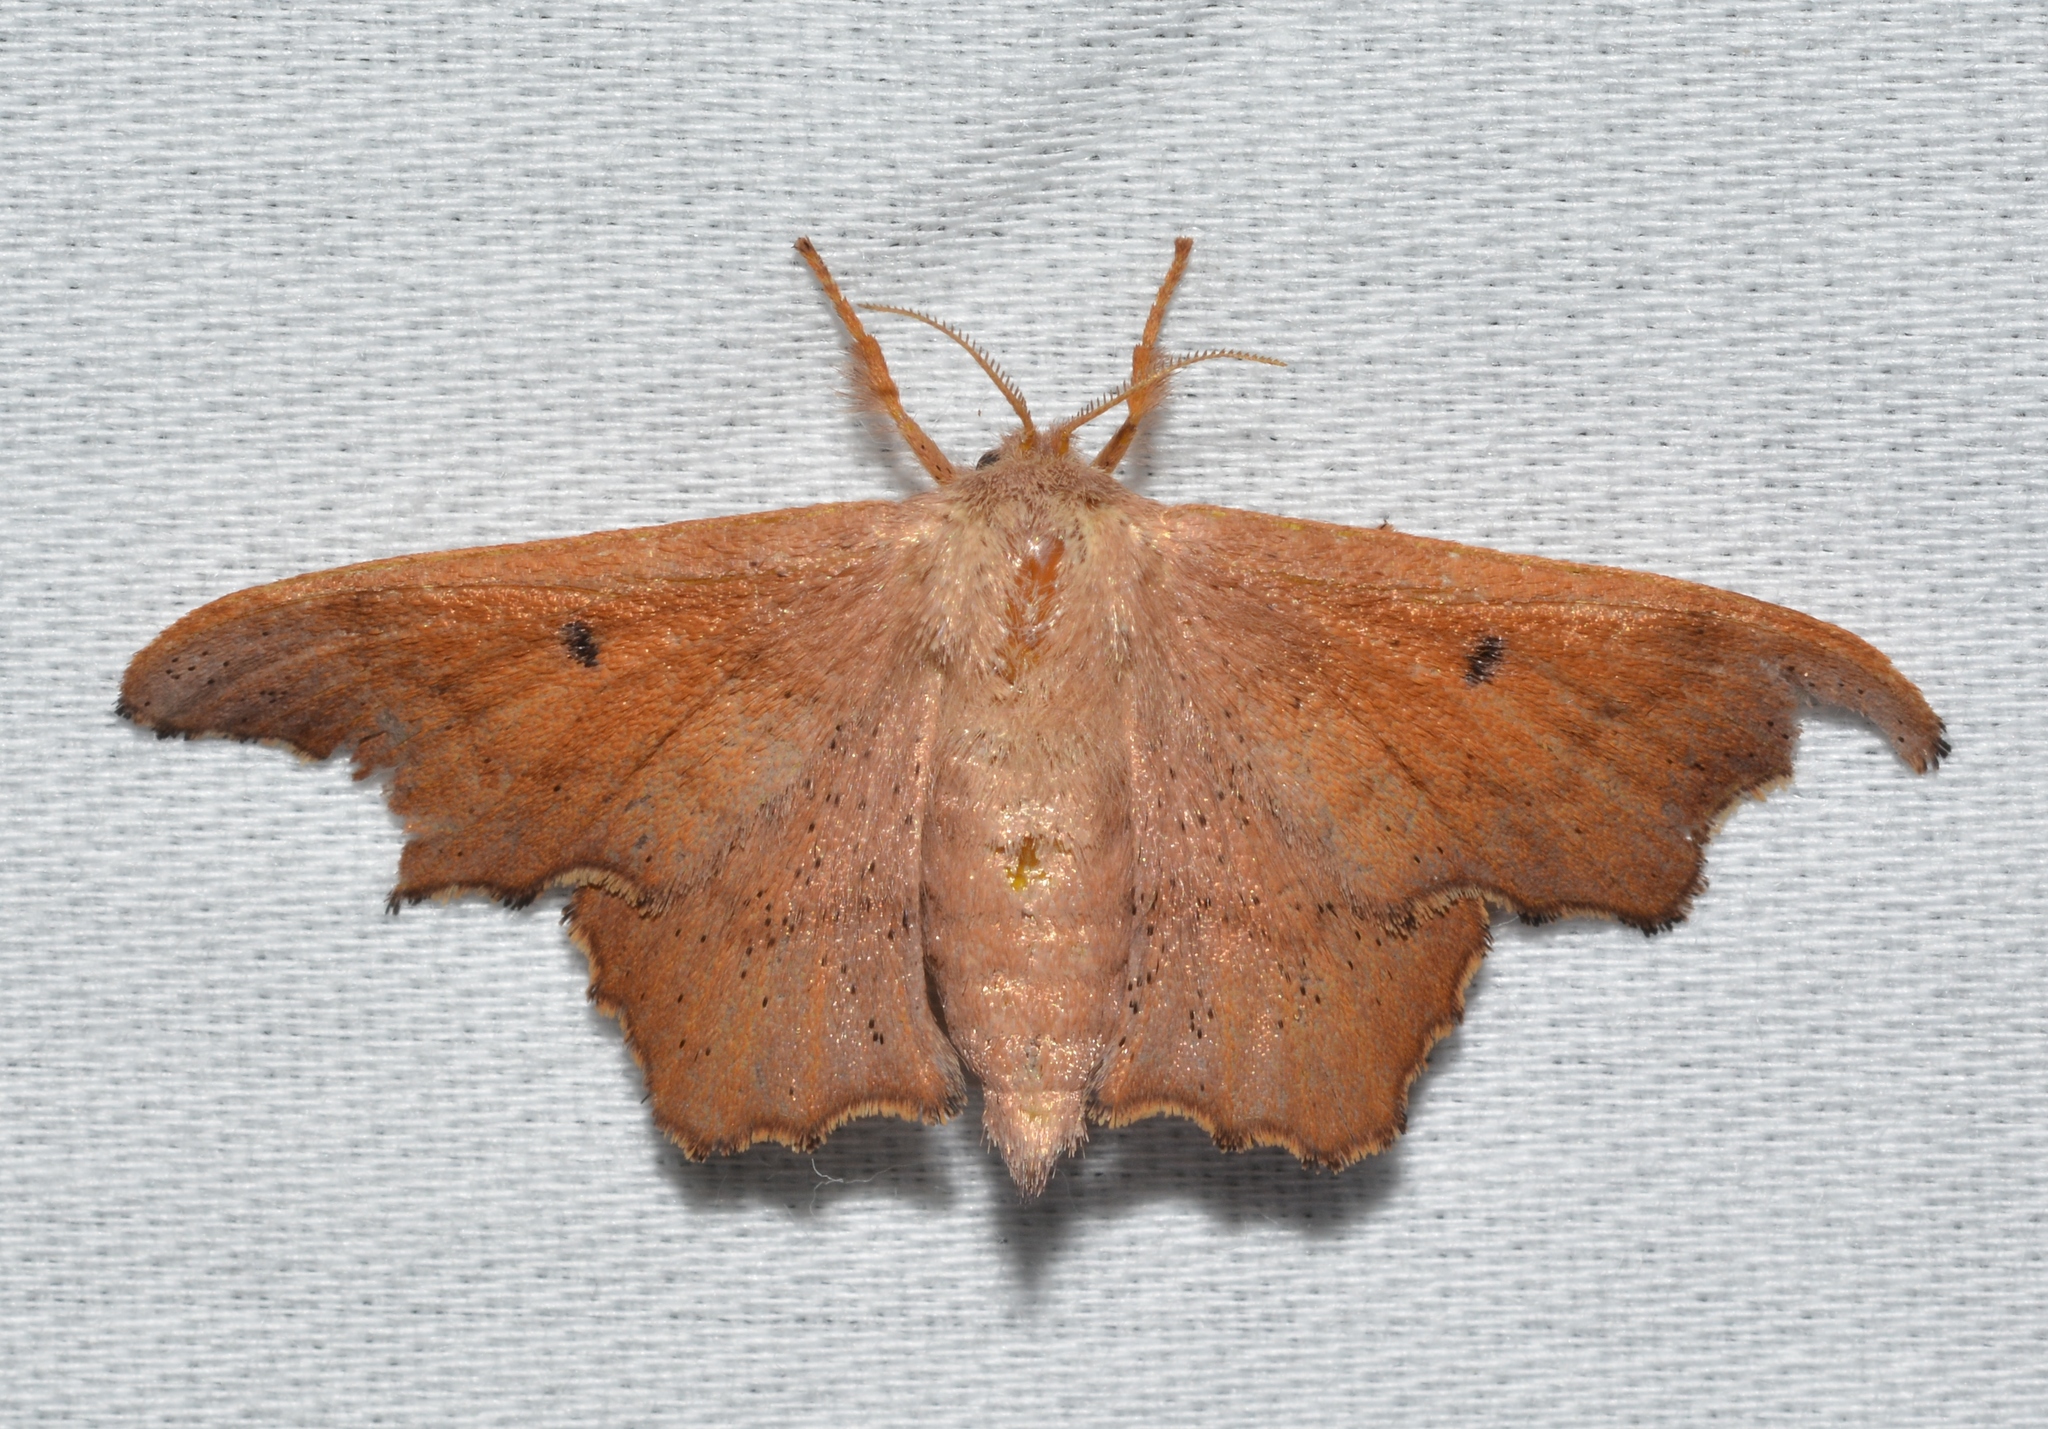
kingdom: Animalia
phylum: Arthropoda
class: Insecta
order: Lepidoptera
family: Mimallonidae
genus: Lacosoma
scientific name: Lacosoma chiridota
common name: Scalloped sack-bearer moth
